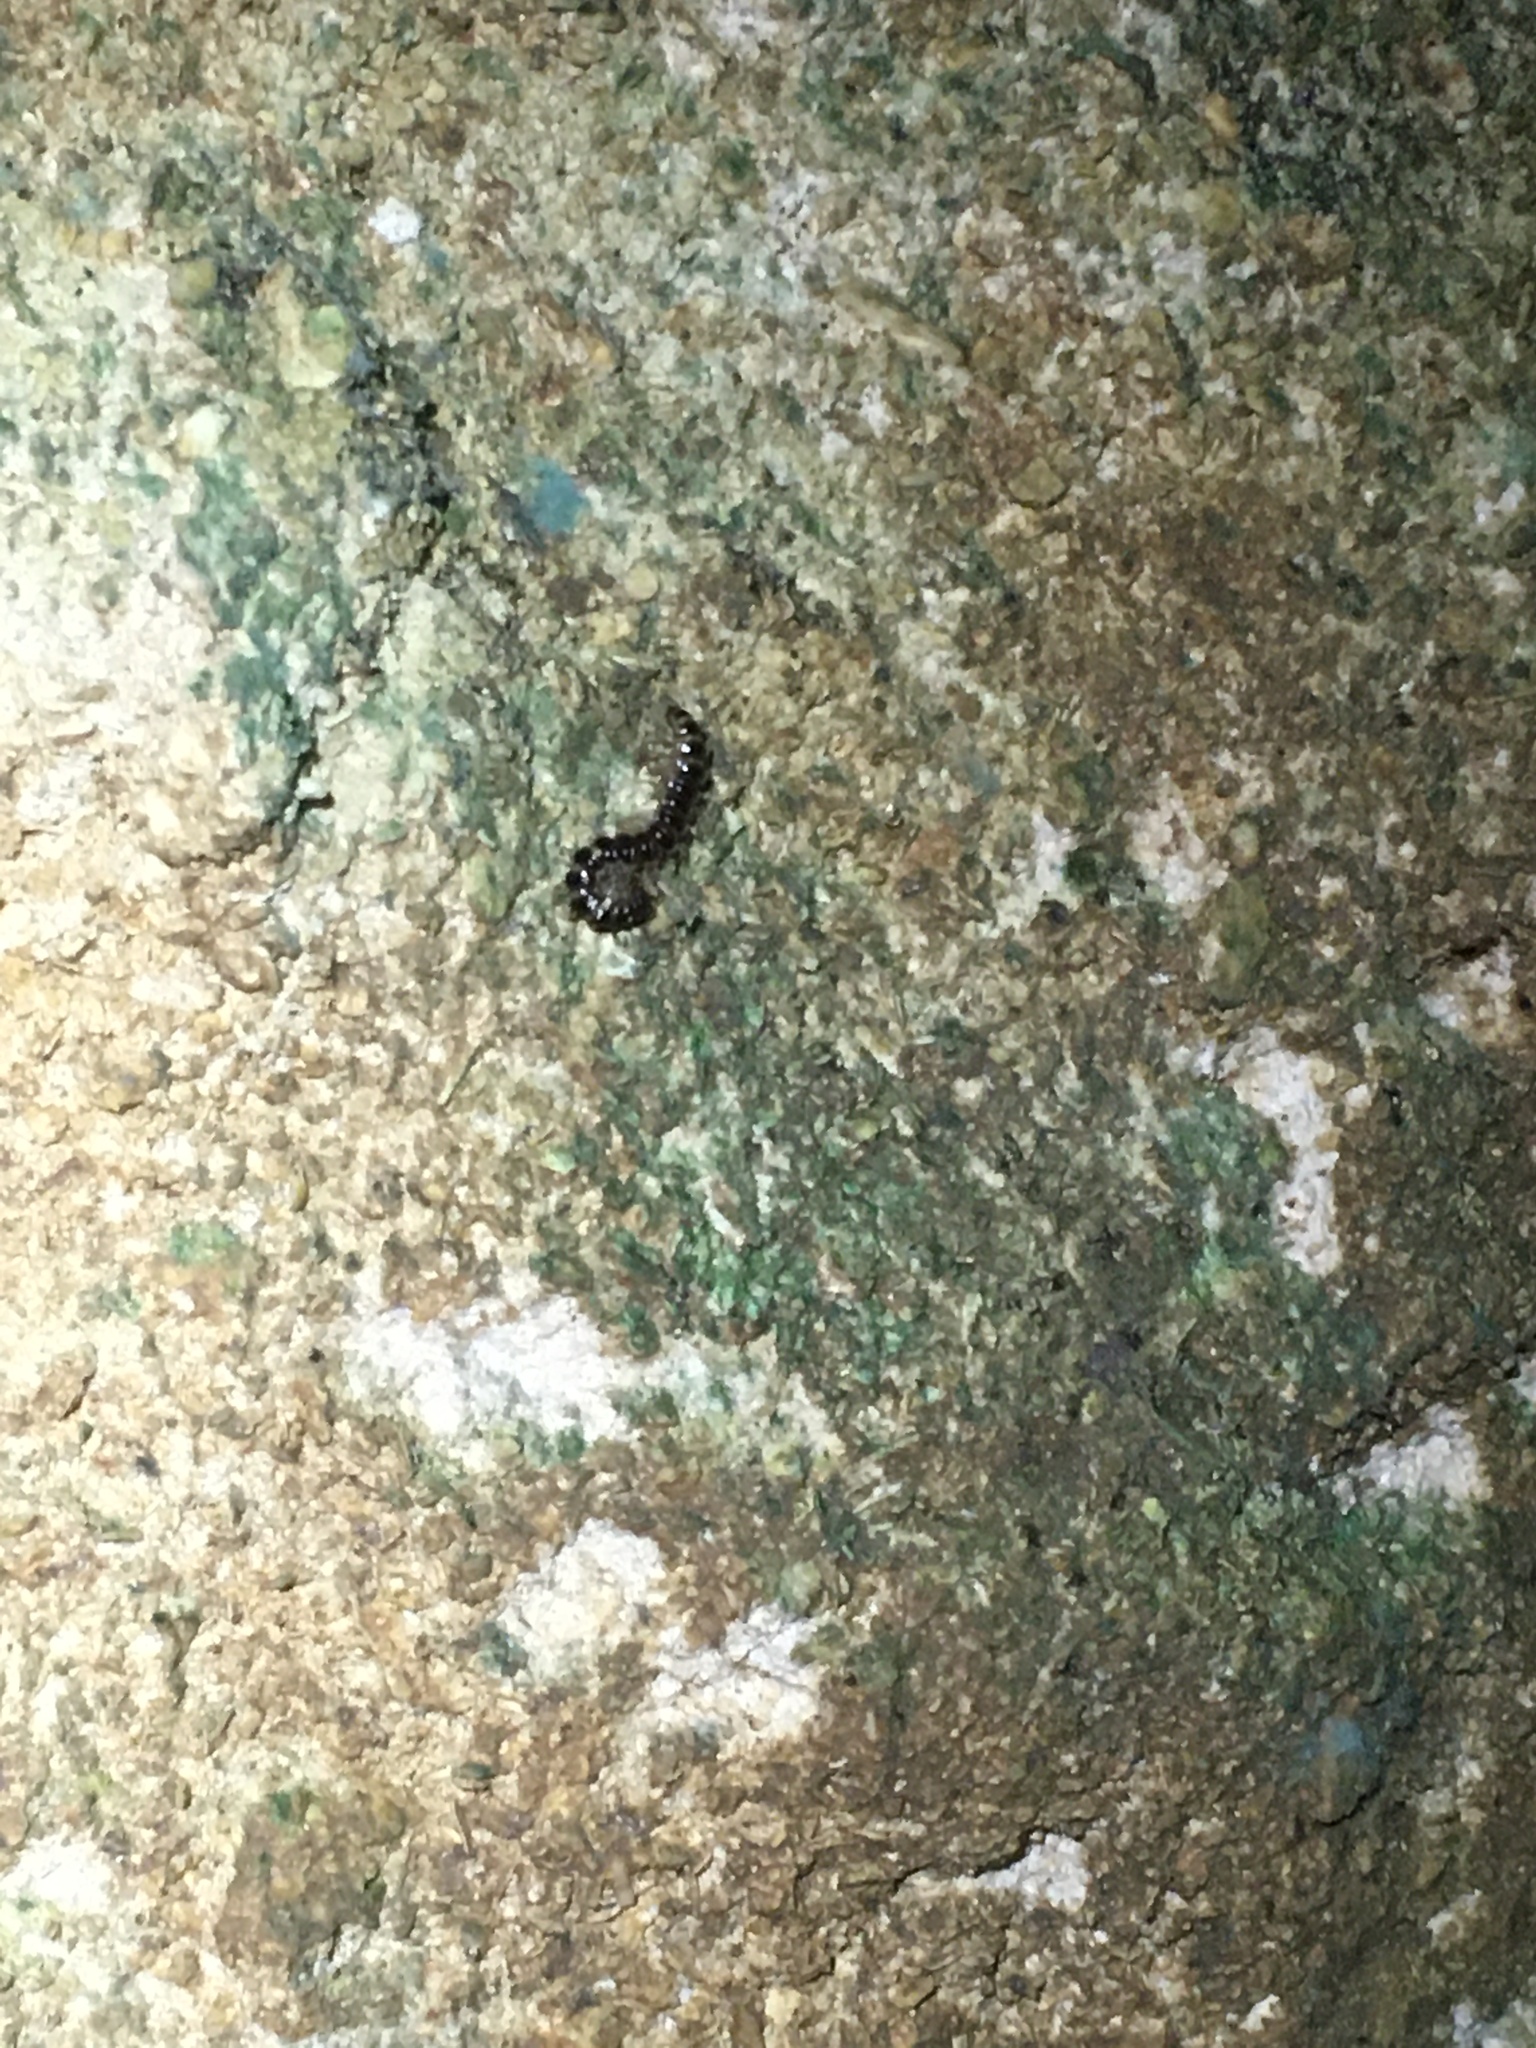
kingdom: Animalia
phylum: Arthropoda
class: Diplopoda
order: Polydesmida
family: Paradoxosomatidae
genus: Oxidus
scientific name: Oxidus gracilis
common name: Greenhouse millipede
